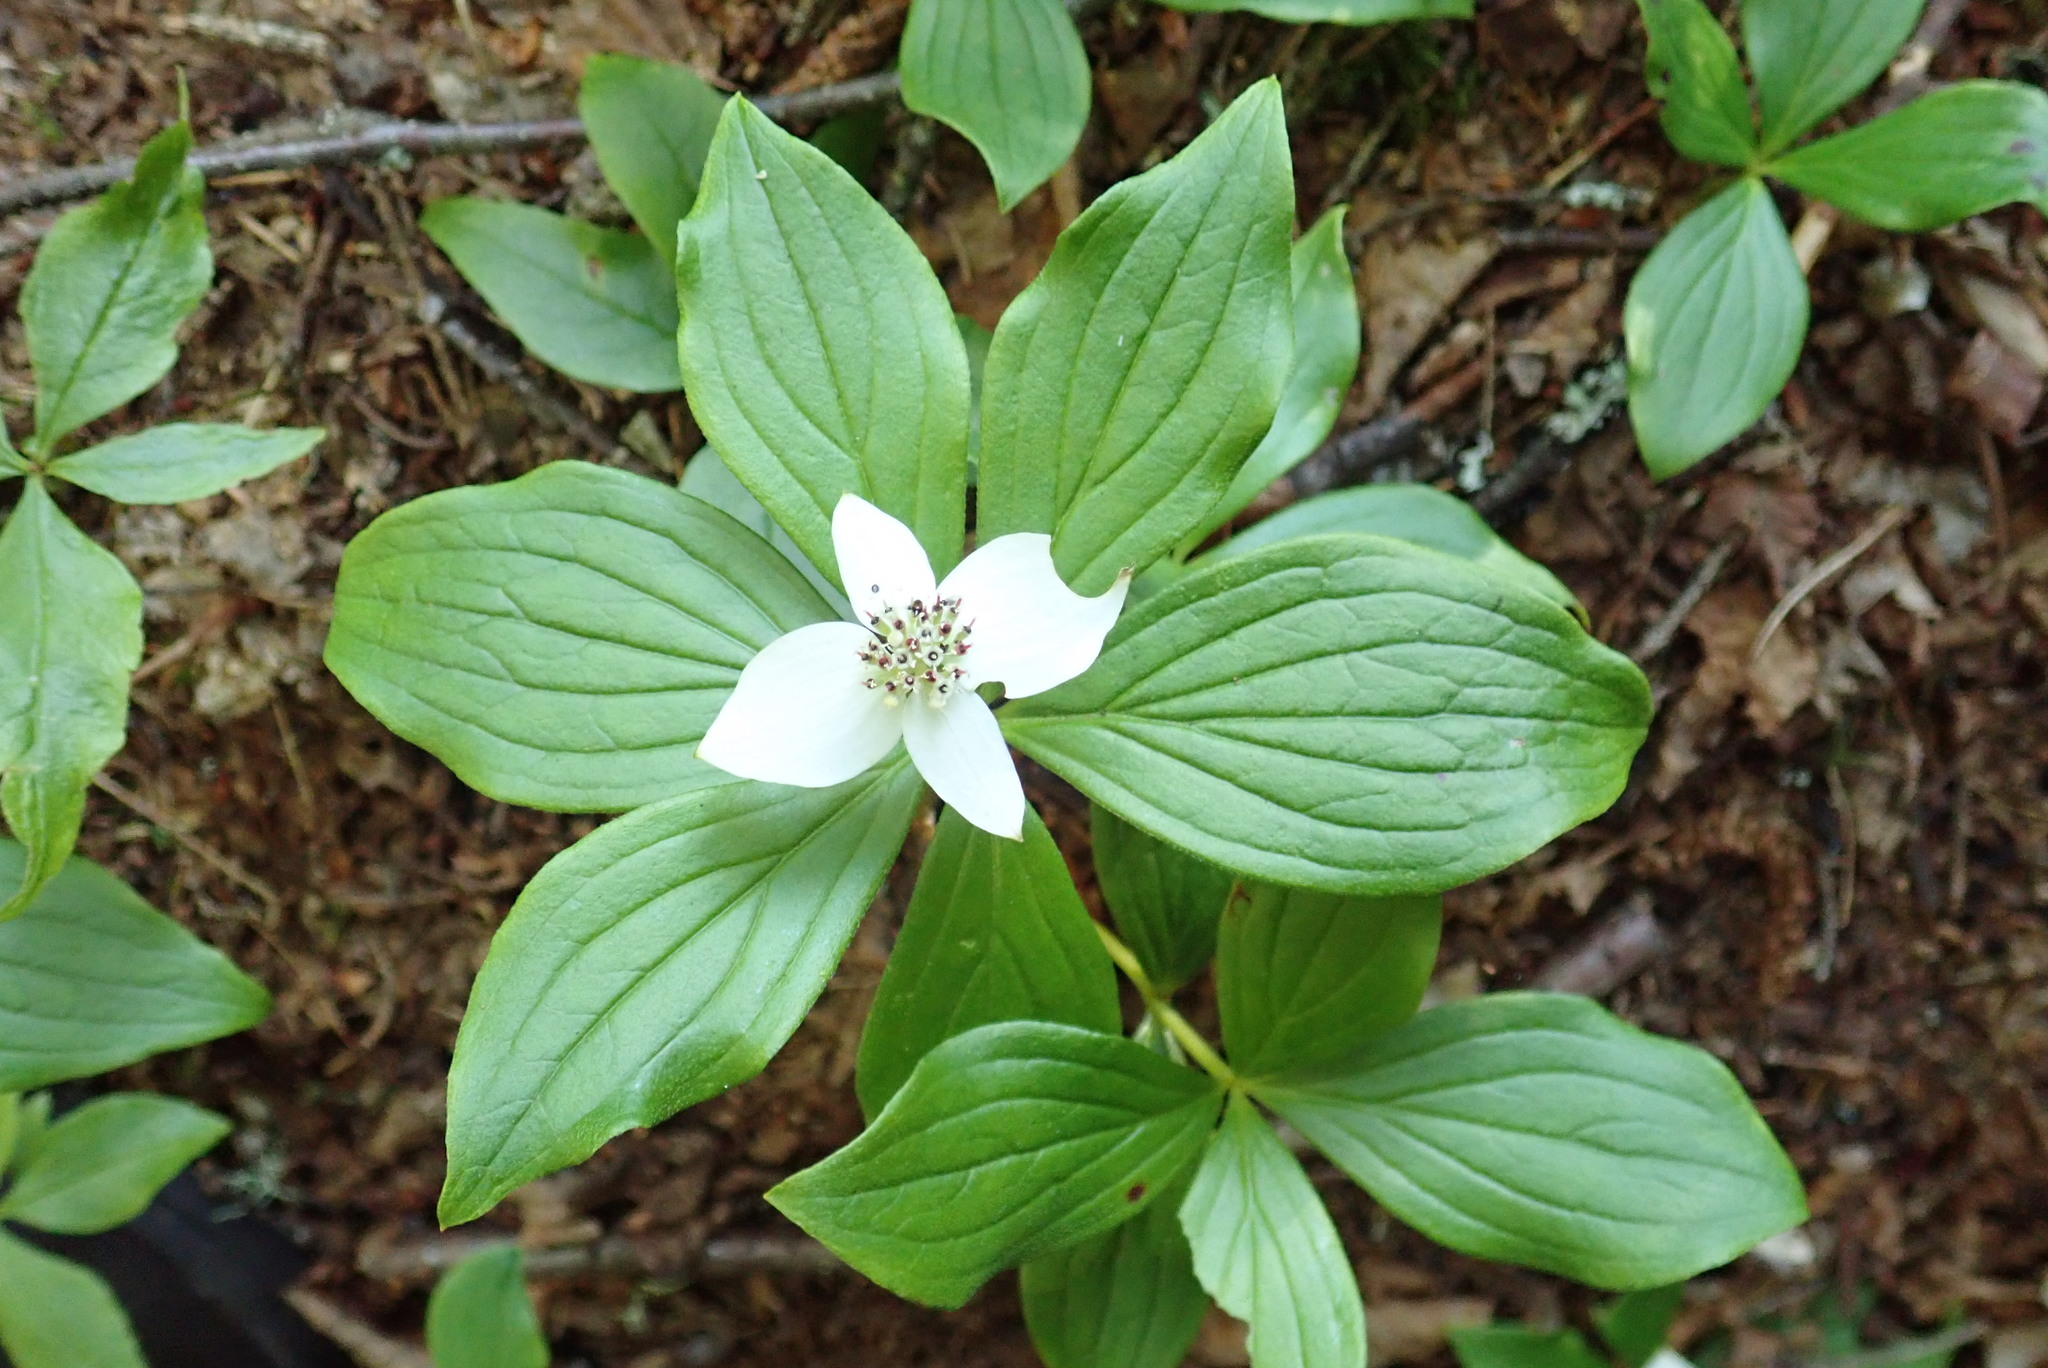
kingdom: Plantae
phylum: Tracheophyta
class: Magnoliopsida
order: Cornales
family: Cornaceae
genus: Cornus
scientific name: Cornus canadensis
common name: Creeping dogwood
